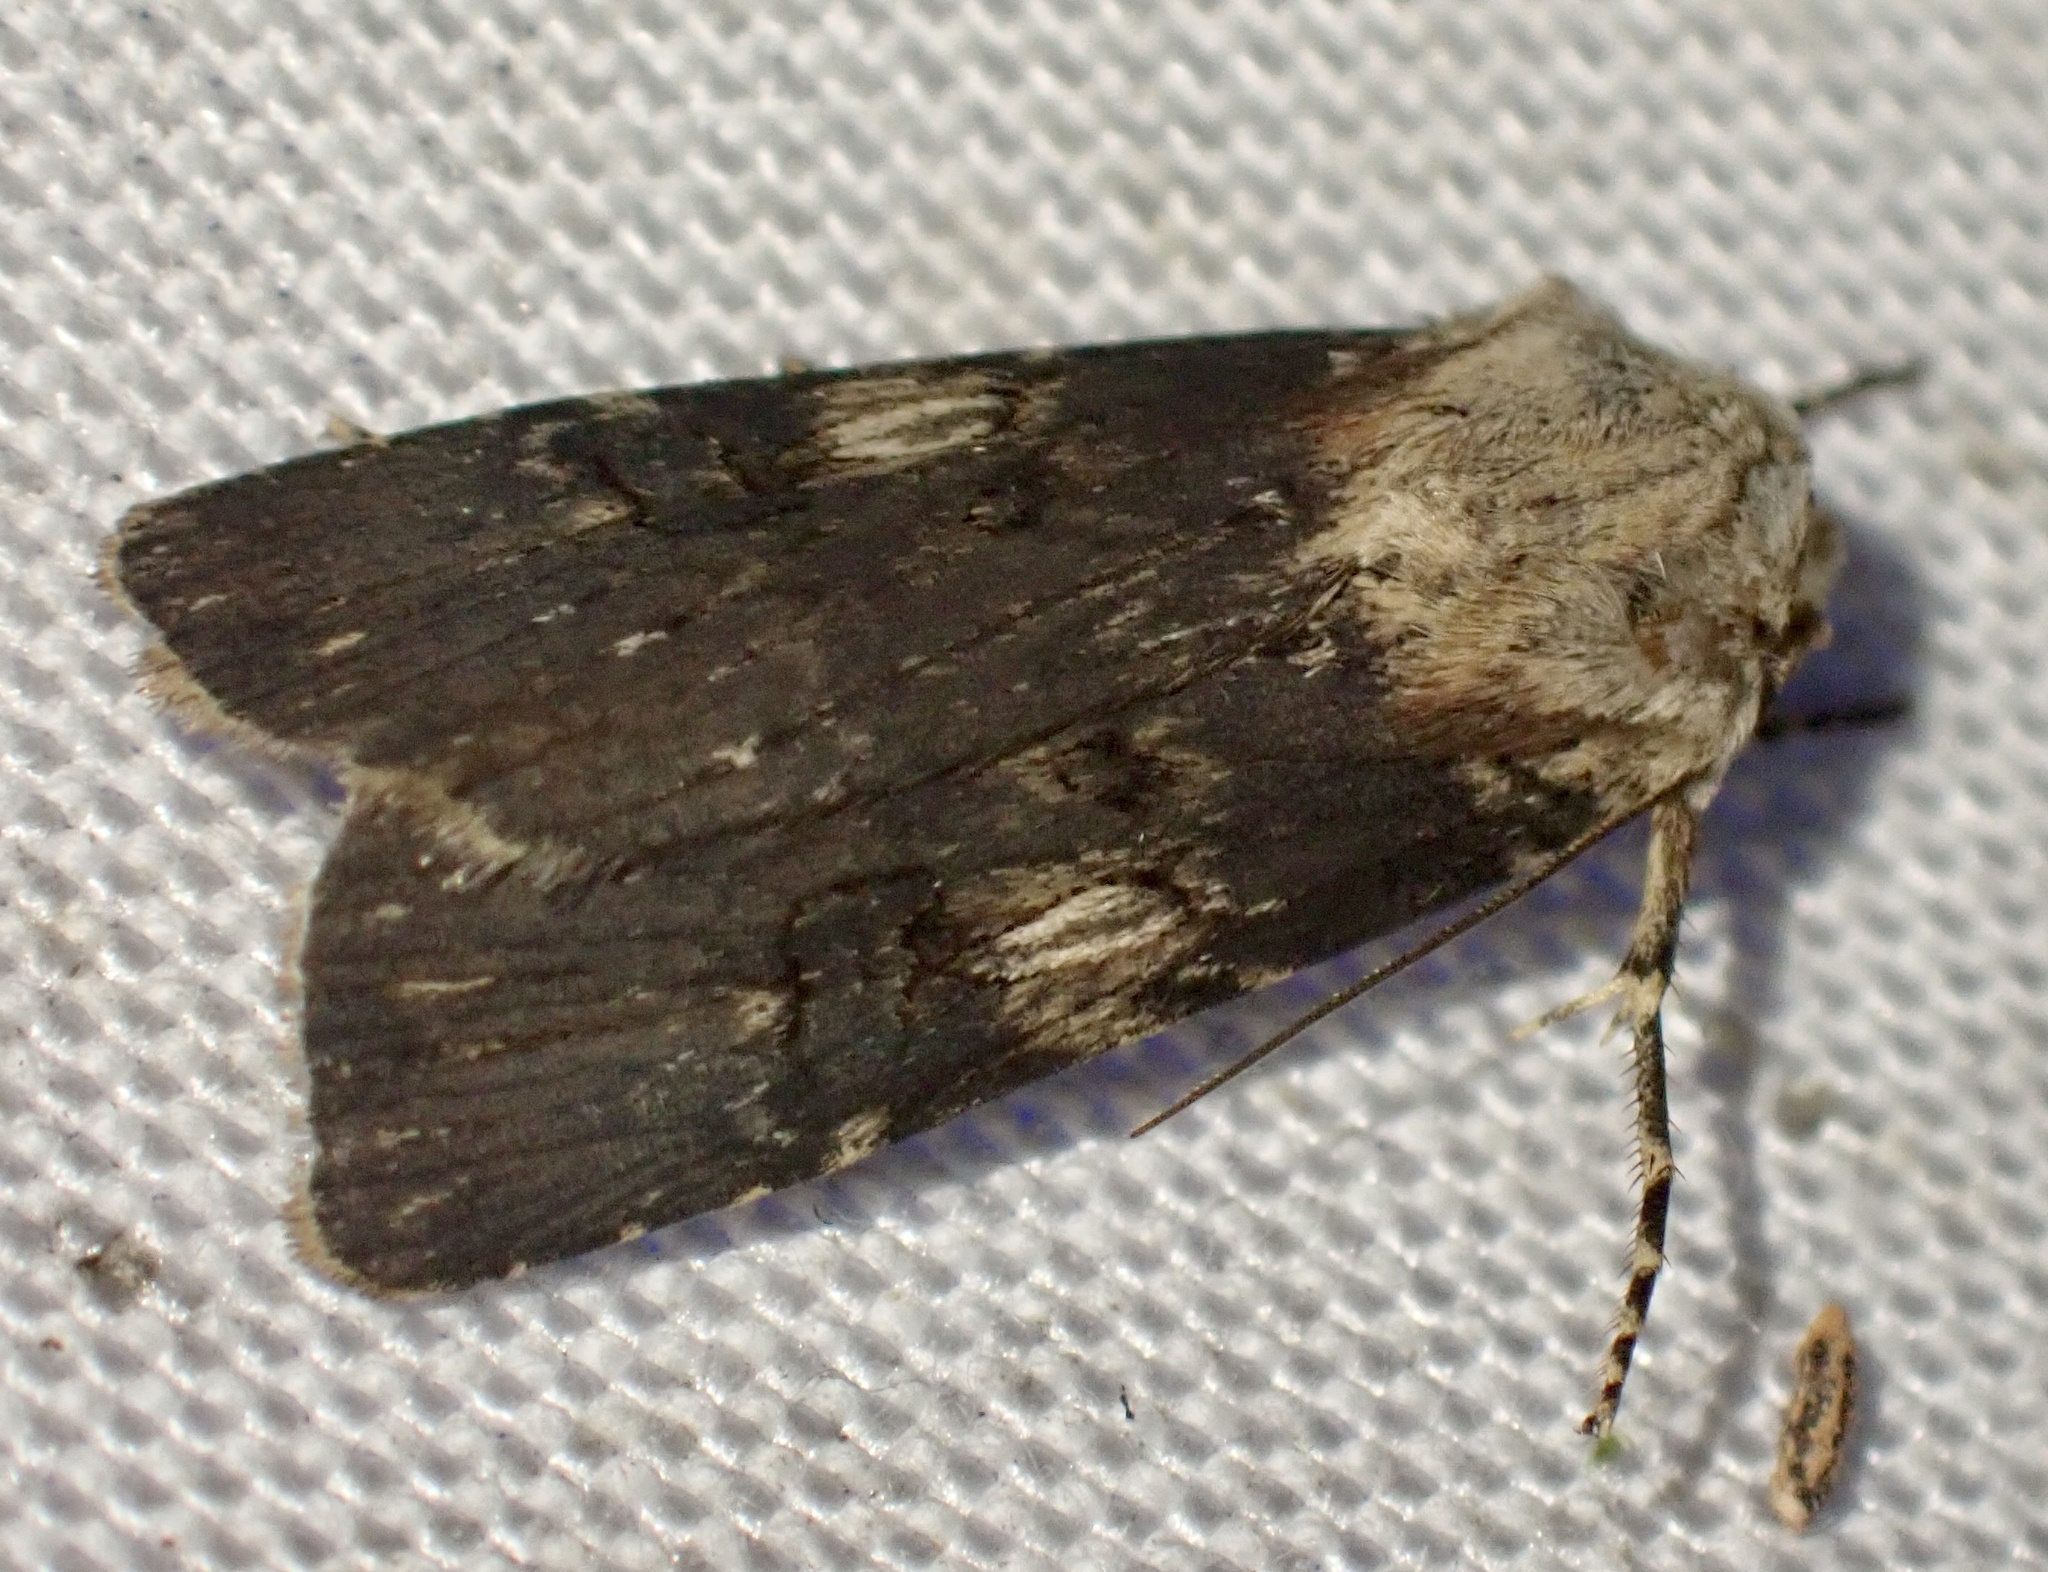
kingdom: Animalia
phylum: Arthropoda
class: Insecta
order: Lepidoptera
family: Noctuidae
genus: Agrotis
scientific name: Agrotis puta
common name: Shuttle-shaped dart
